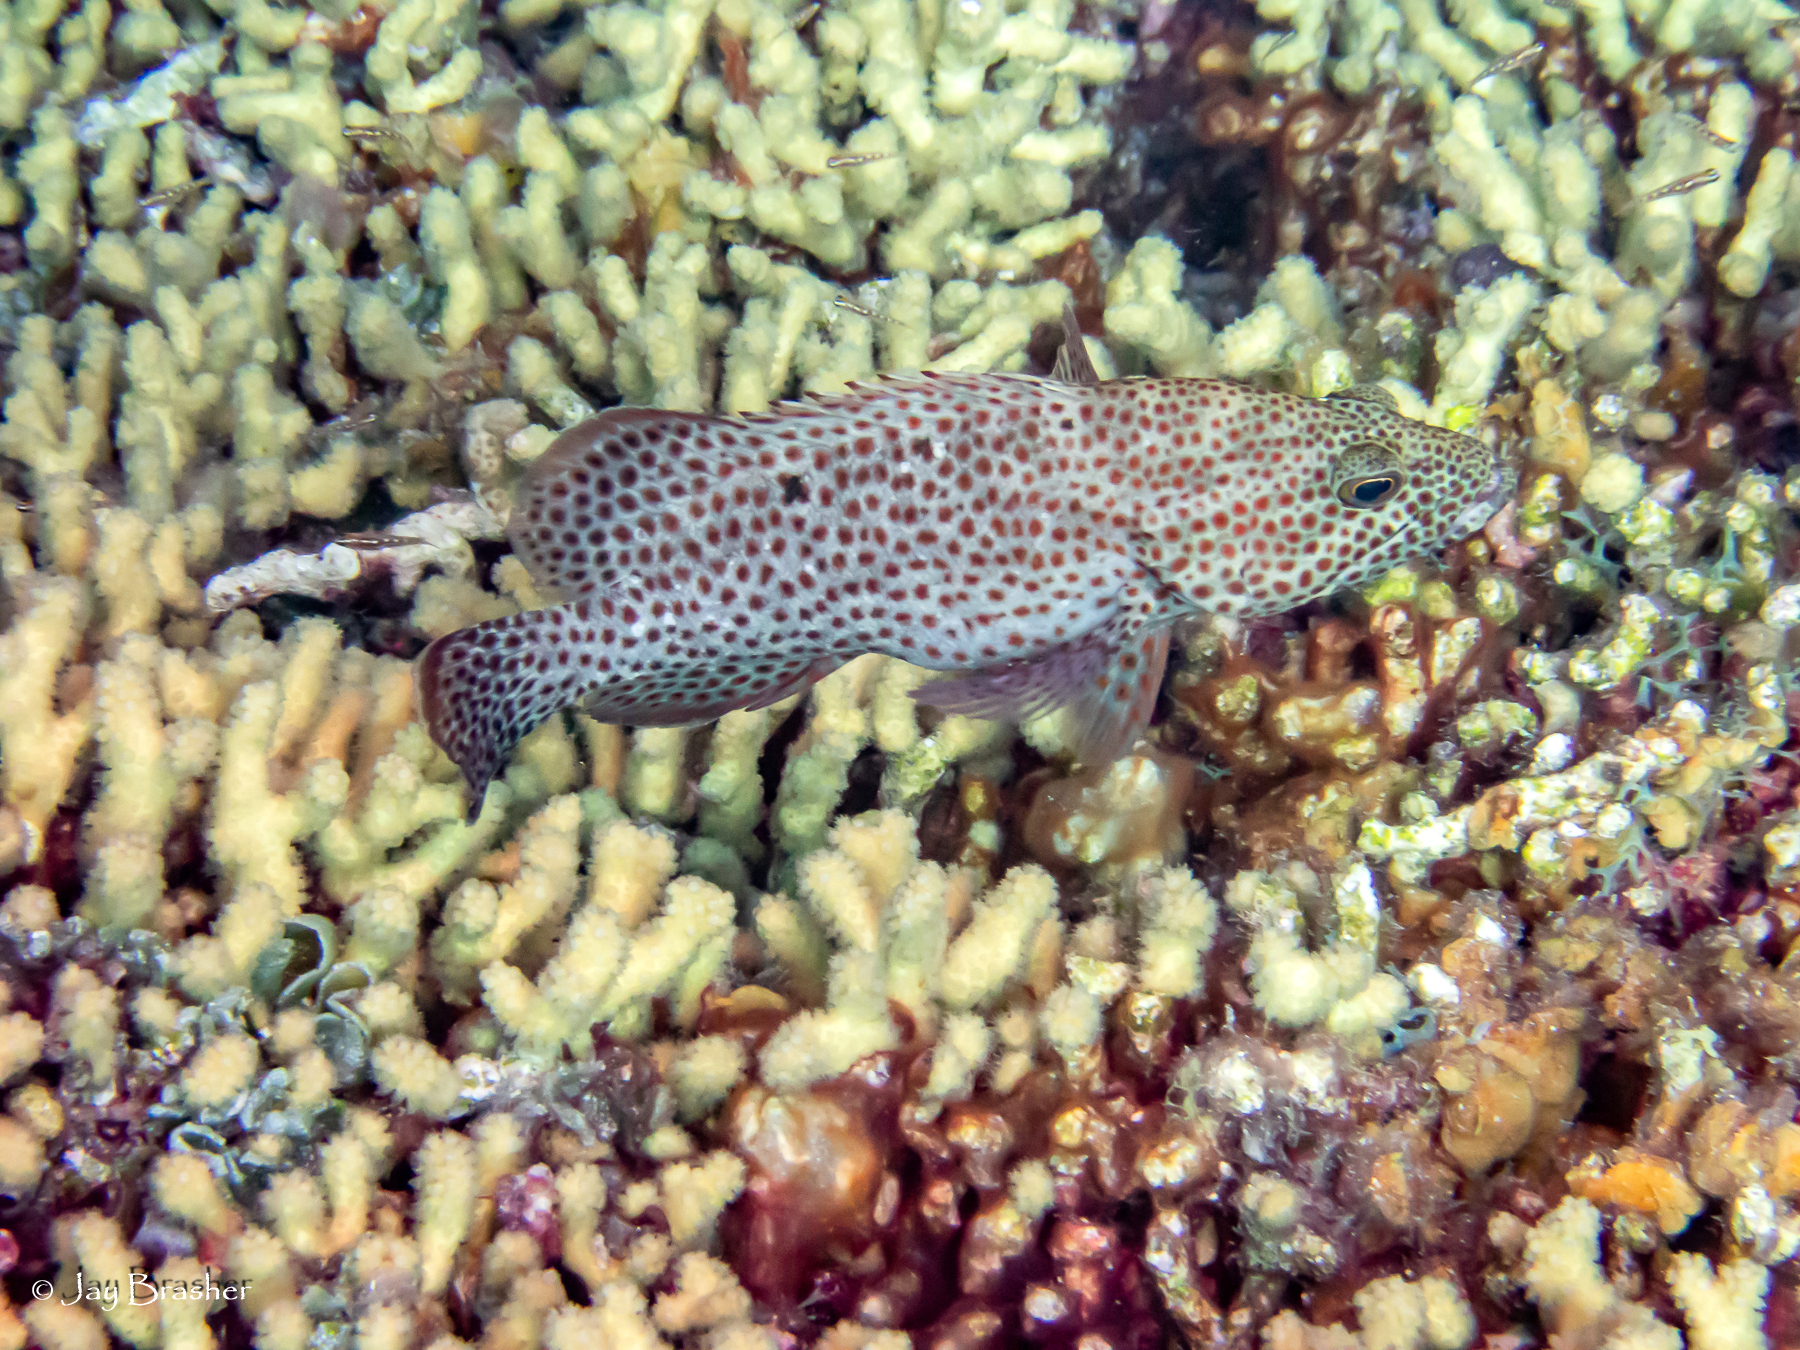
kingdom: Animalia
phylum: Chordata
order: Perciformes
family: Serranidae
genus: Cephalopholis
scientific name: Cephalopholis cruentata
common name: Graysby
